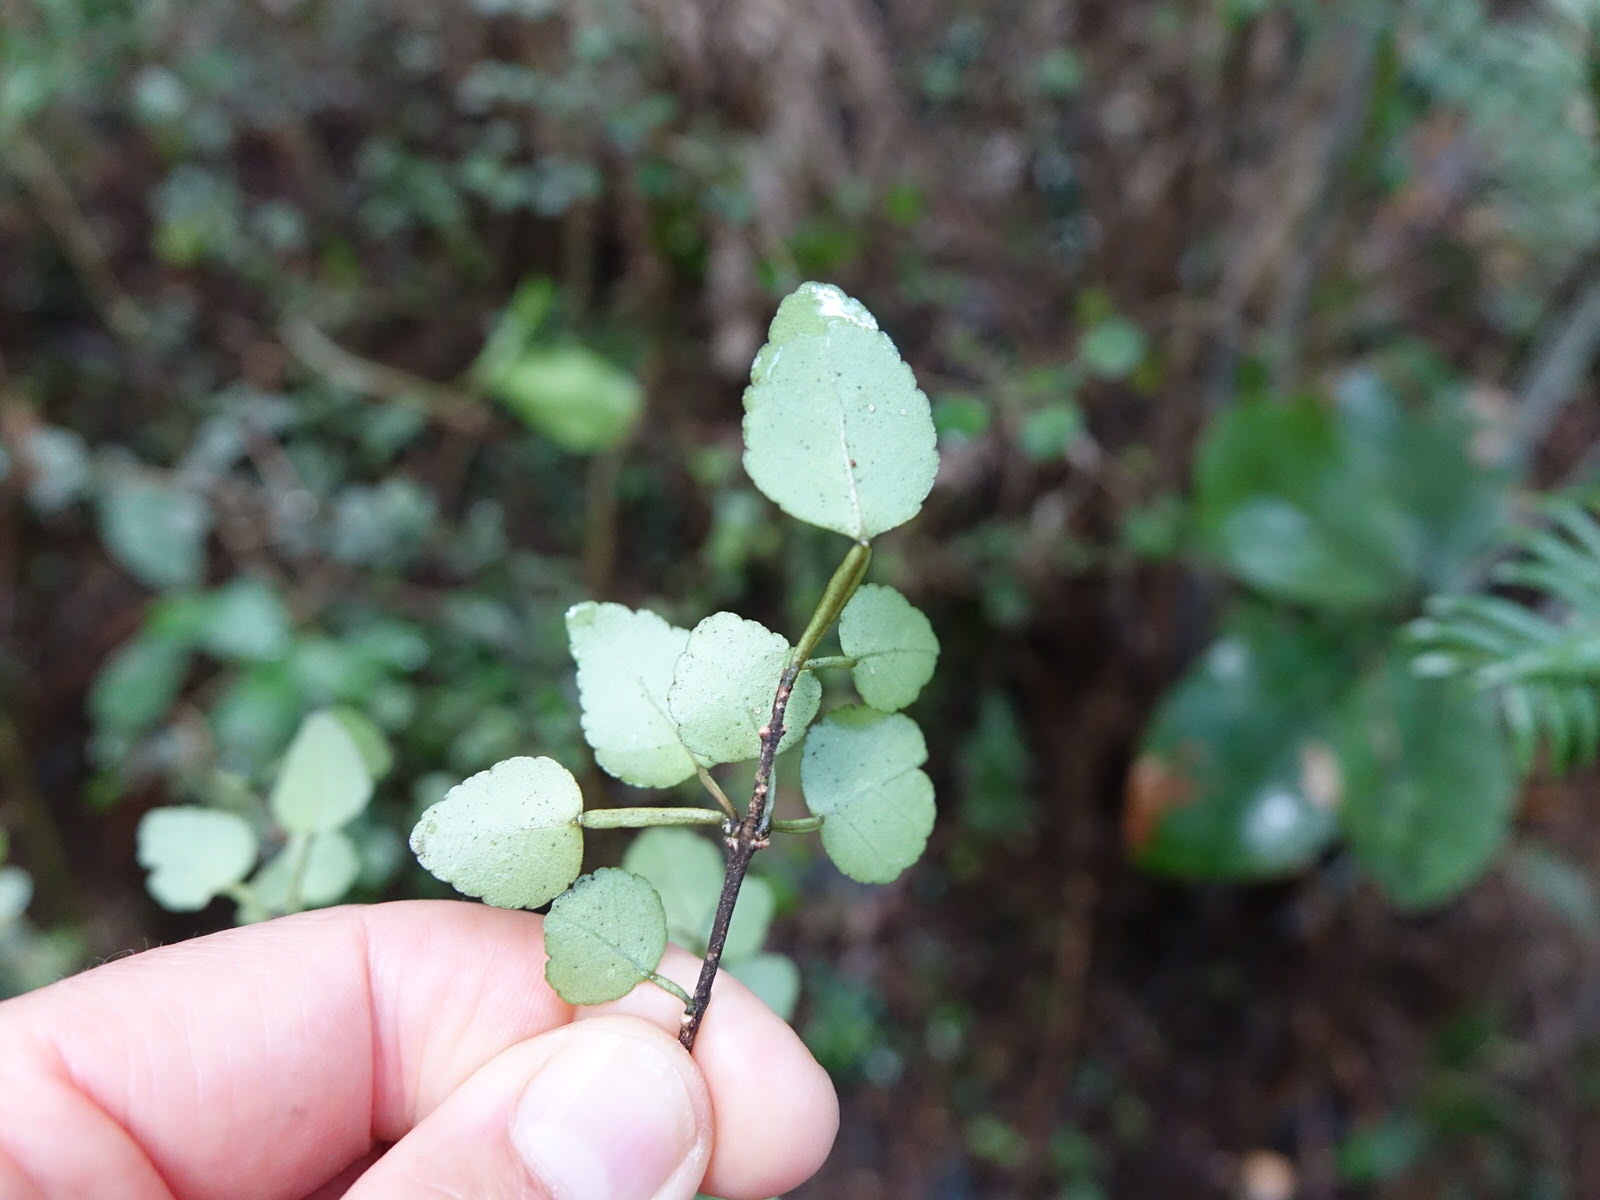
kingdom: Plantae
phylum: Tracheophyta
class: Magnoliopsida
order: Sapindales
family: Rutaceae
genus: Melicope
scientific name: Melicope simplex
